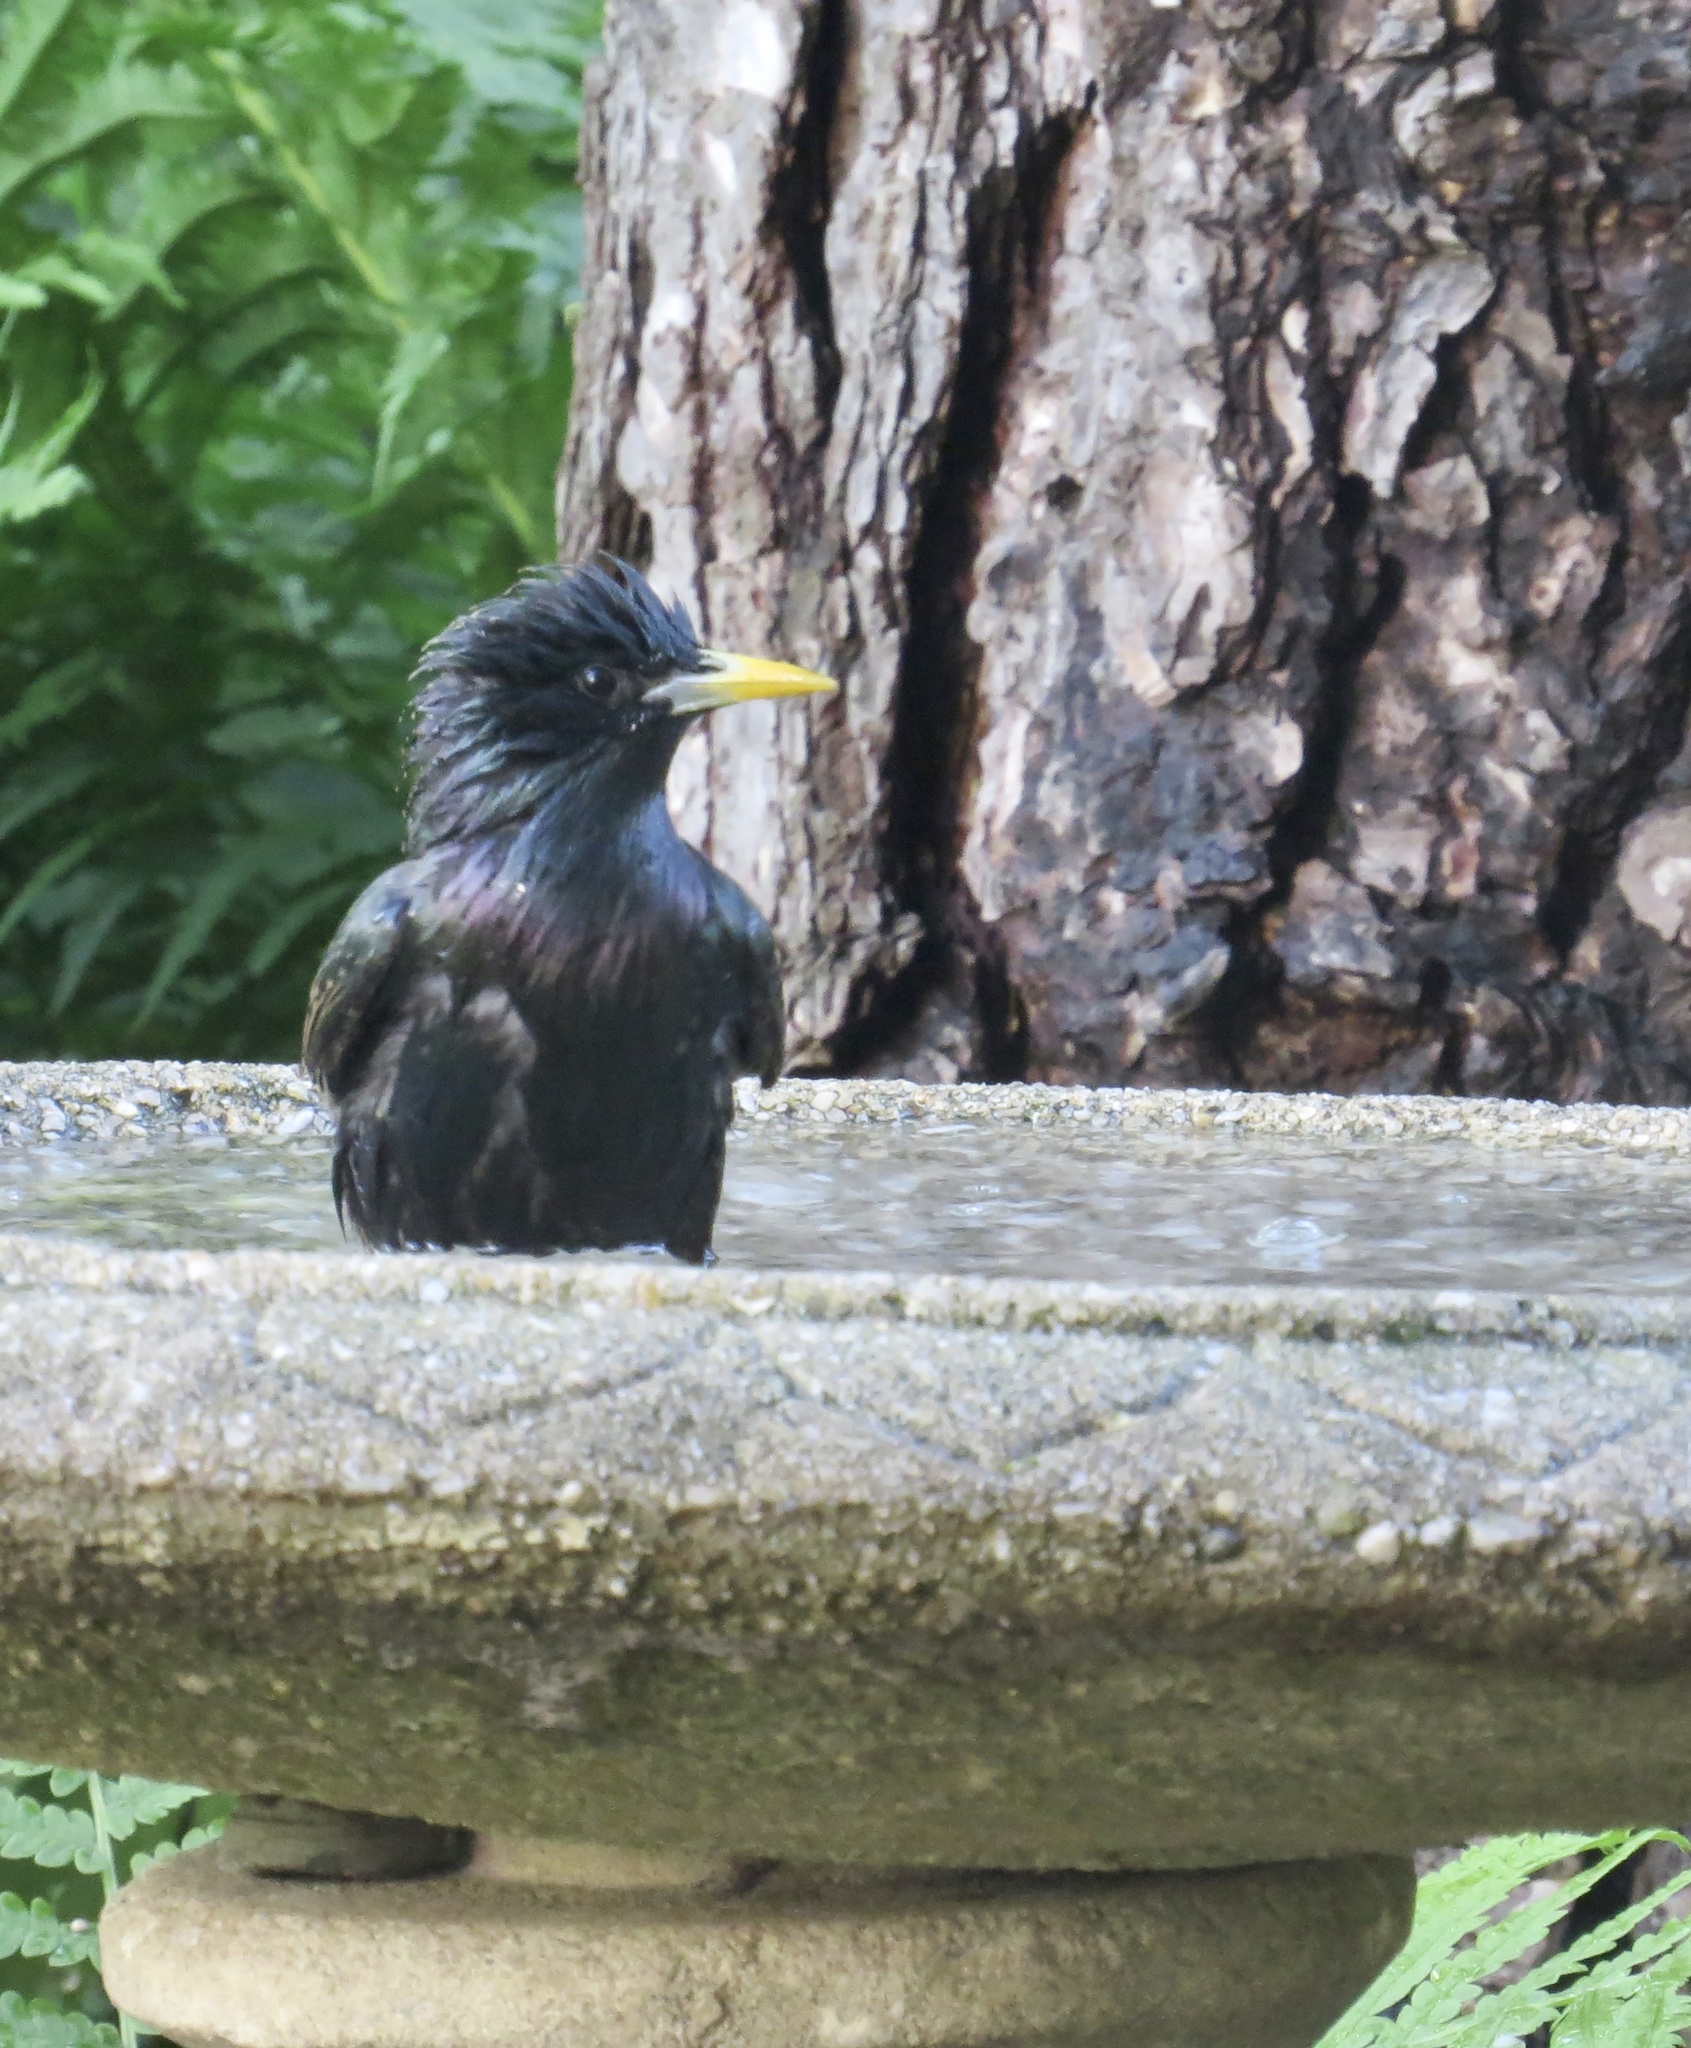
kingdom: Animalia
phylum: Chordata
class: Aves
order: Passeriformes
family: Sturnidae
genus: Sturnus
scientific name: Sturnus vulgaris
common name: Common starling
